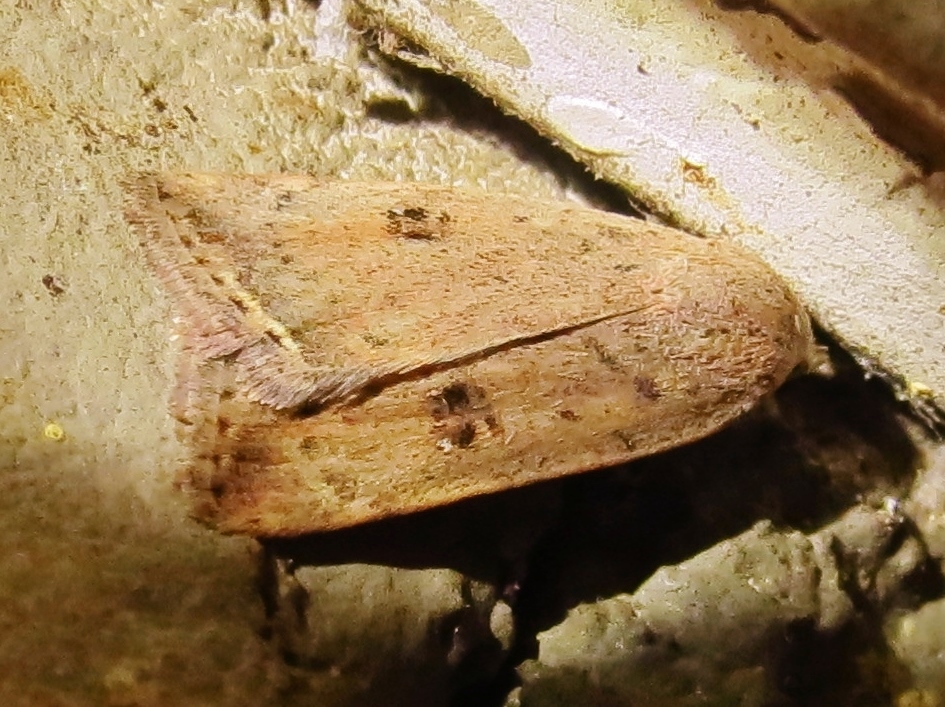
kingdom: Animalia
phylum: Arthropoda
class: Insecta
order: Lepidoptera
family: Noctuidae
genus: Micrathetis
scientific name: Micrathetis triplex
